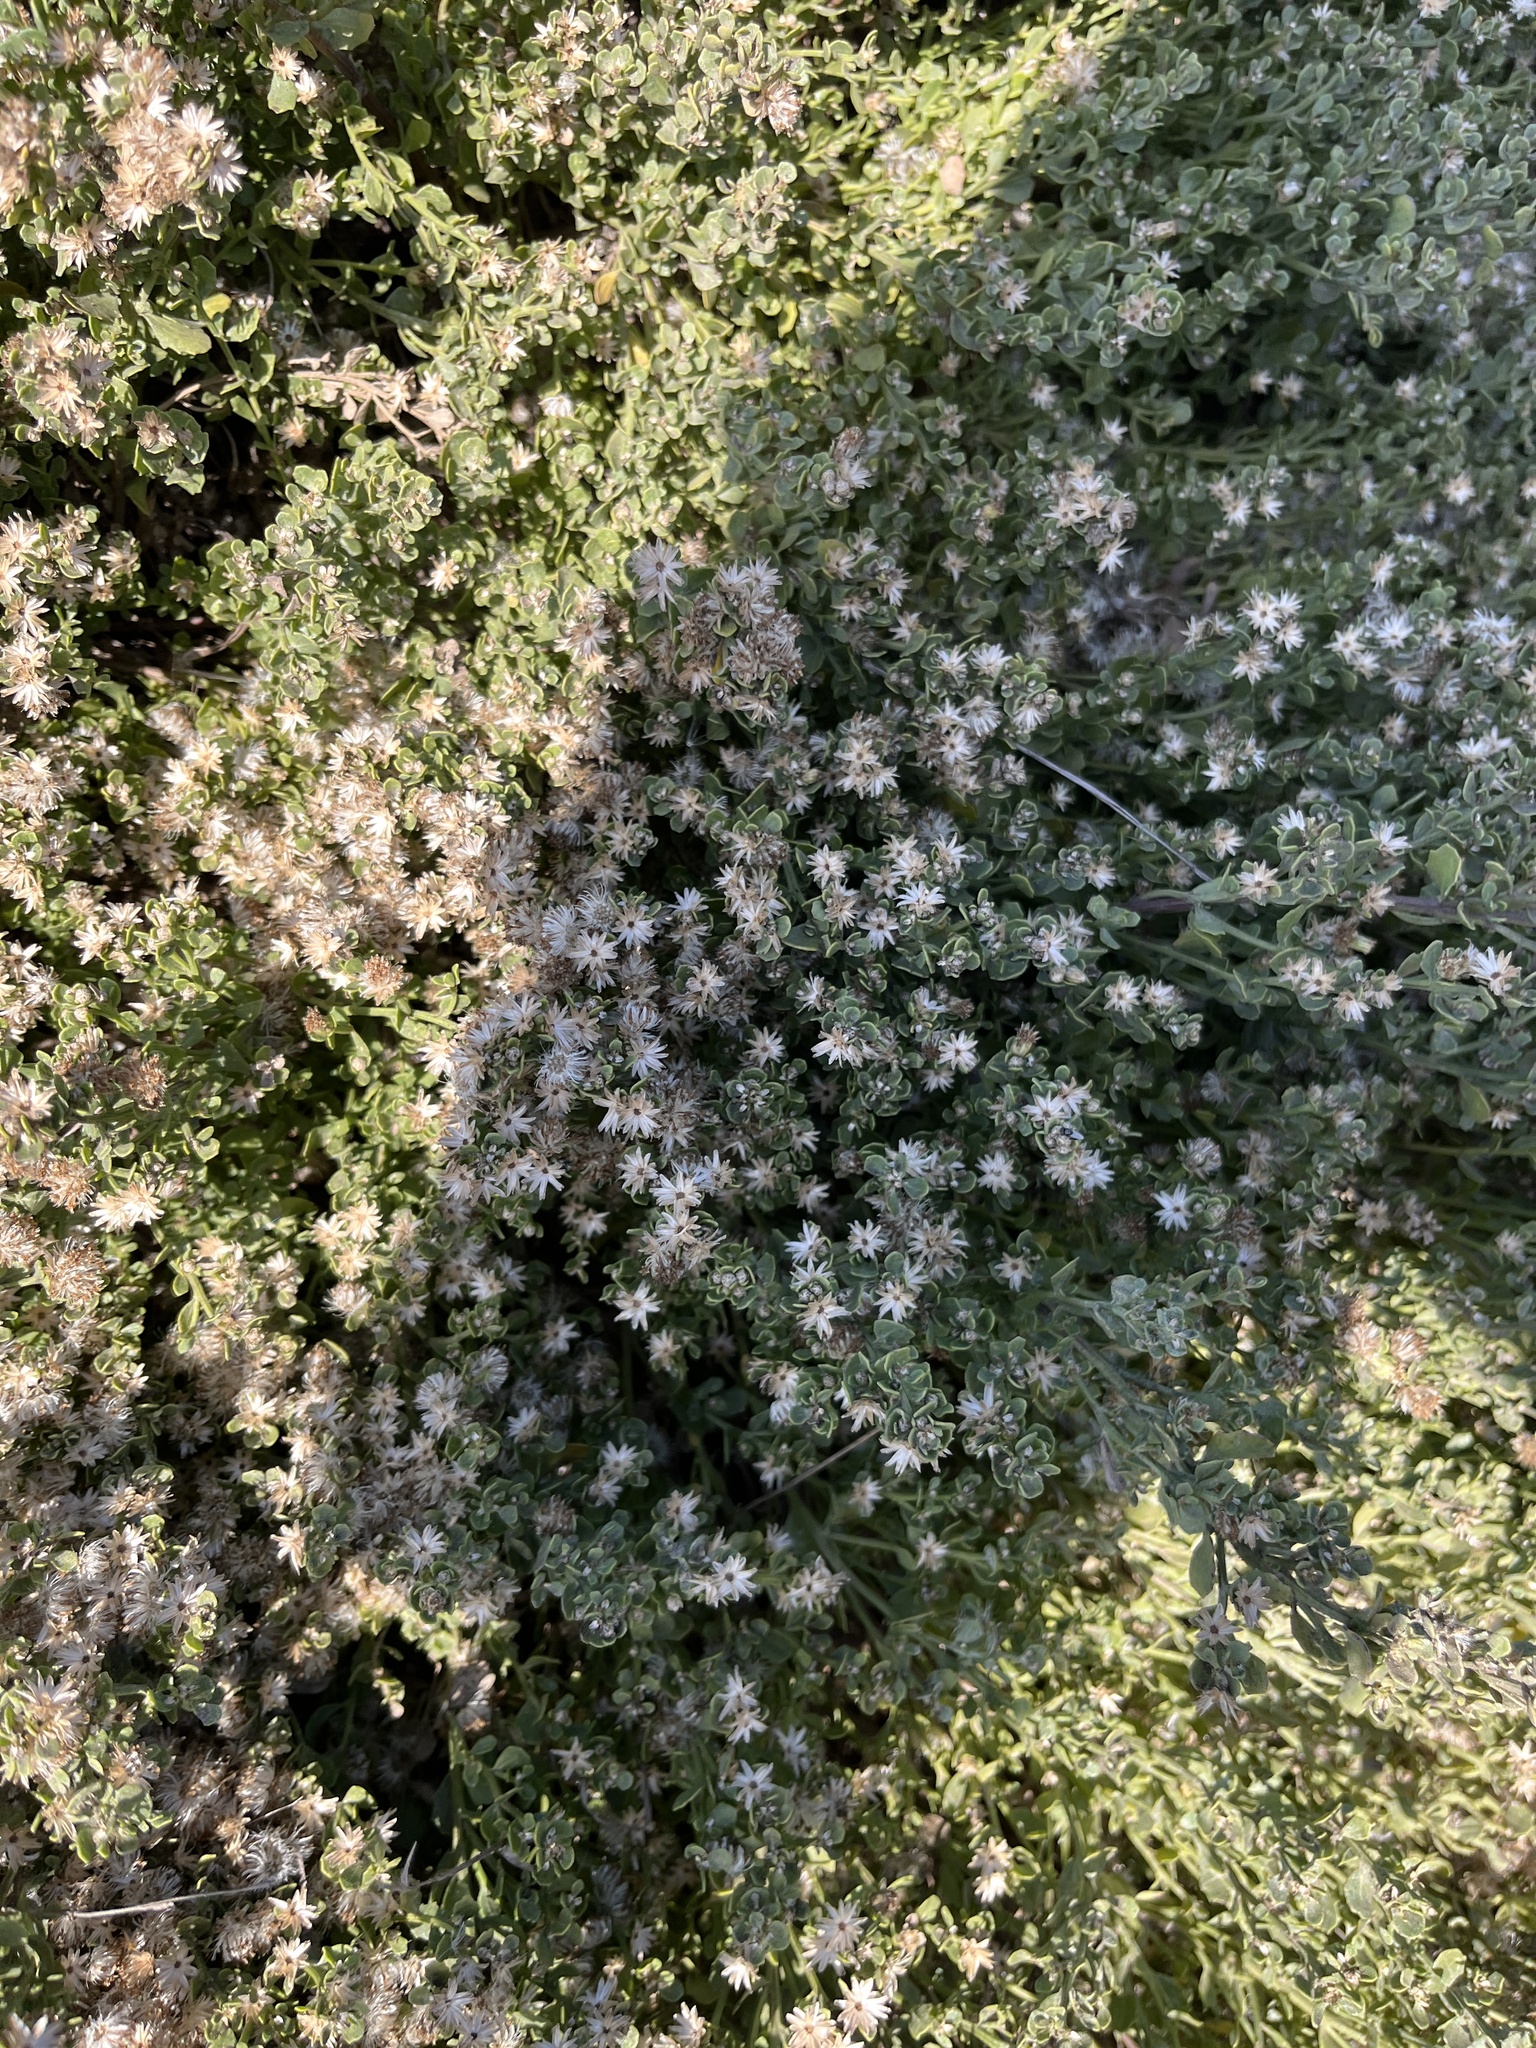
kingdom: Plantae
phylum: Tracheophyta
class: Magnoliopsida
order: Asterales
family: Asteraceae
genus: Baccharis
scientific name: Baccharis pilularis
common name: Coyotebrush
